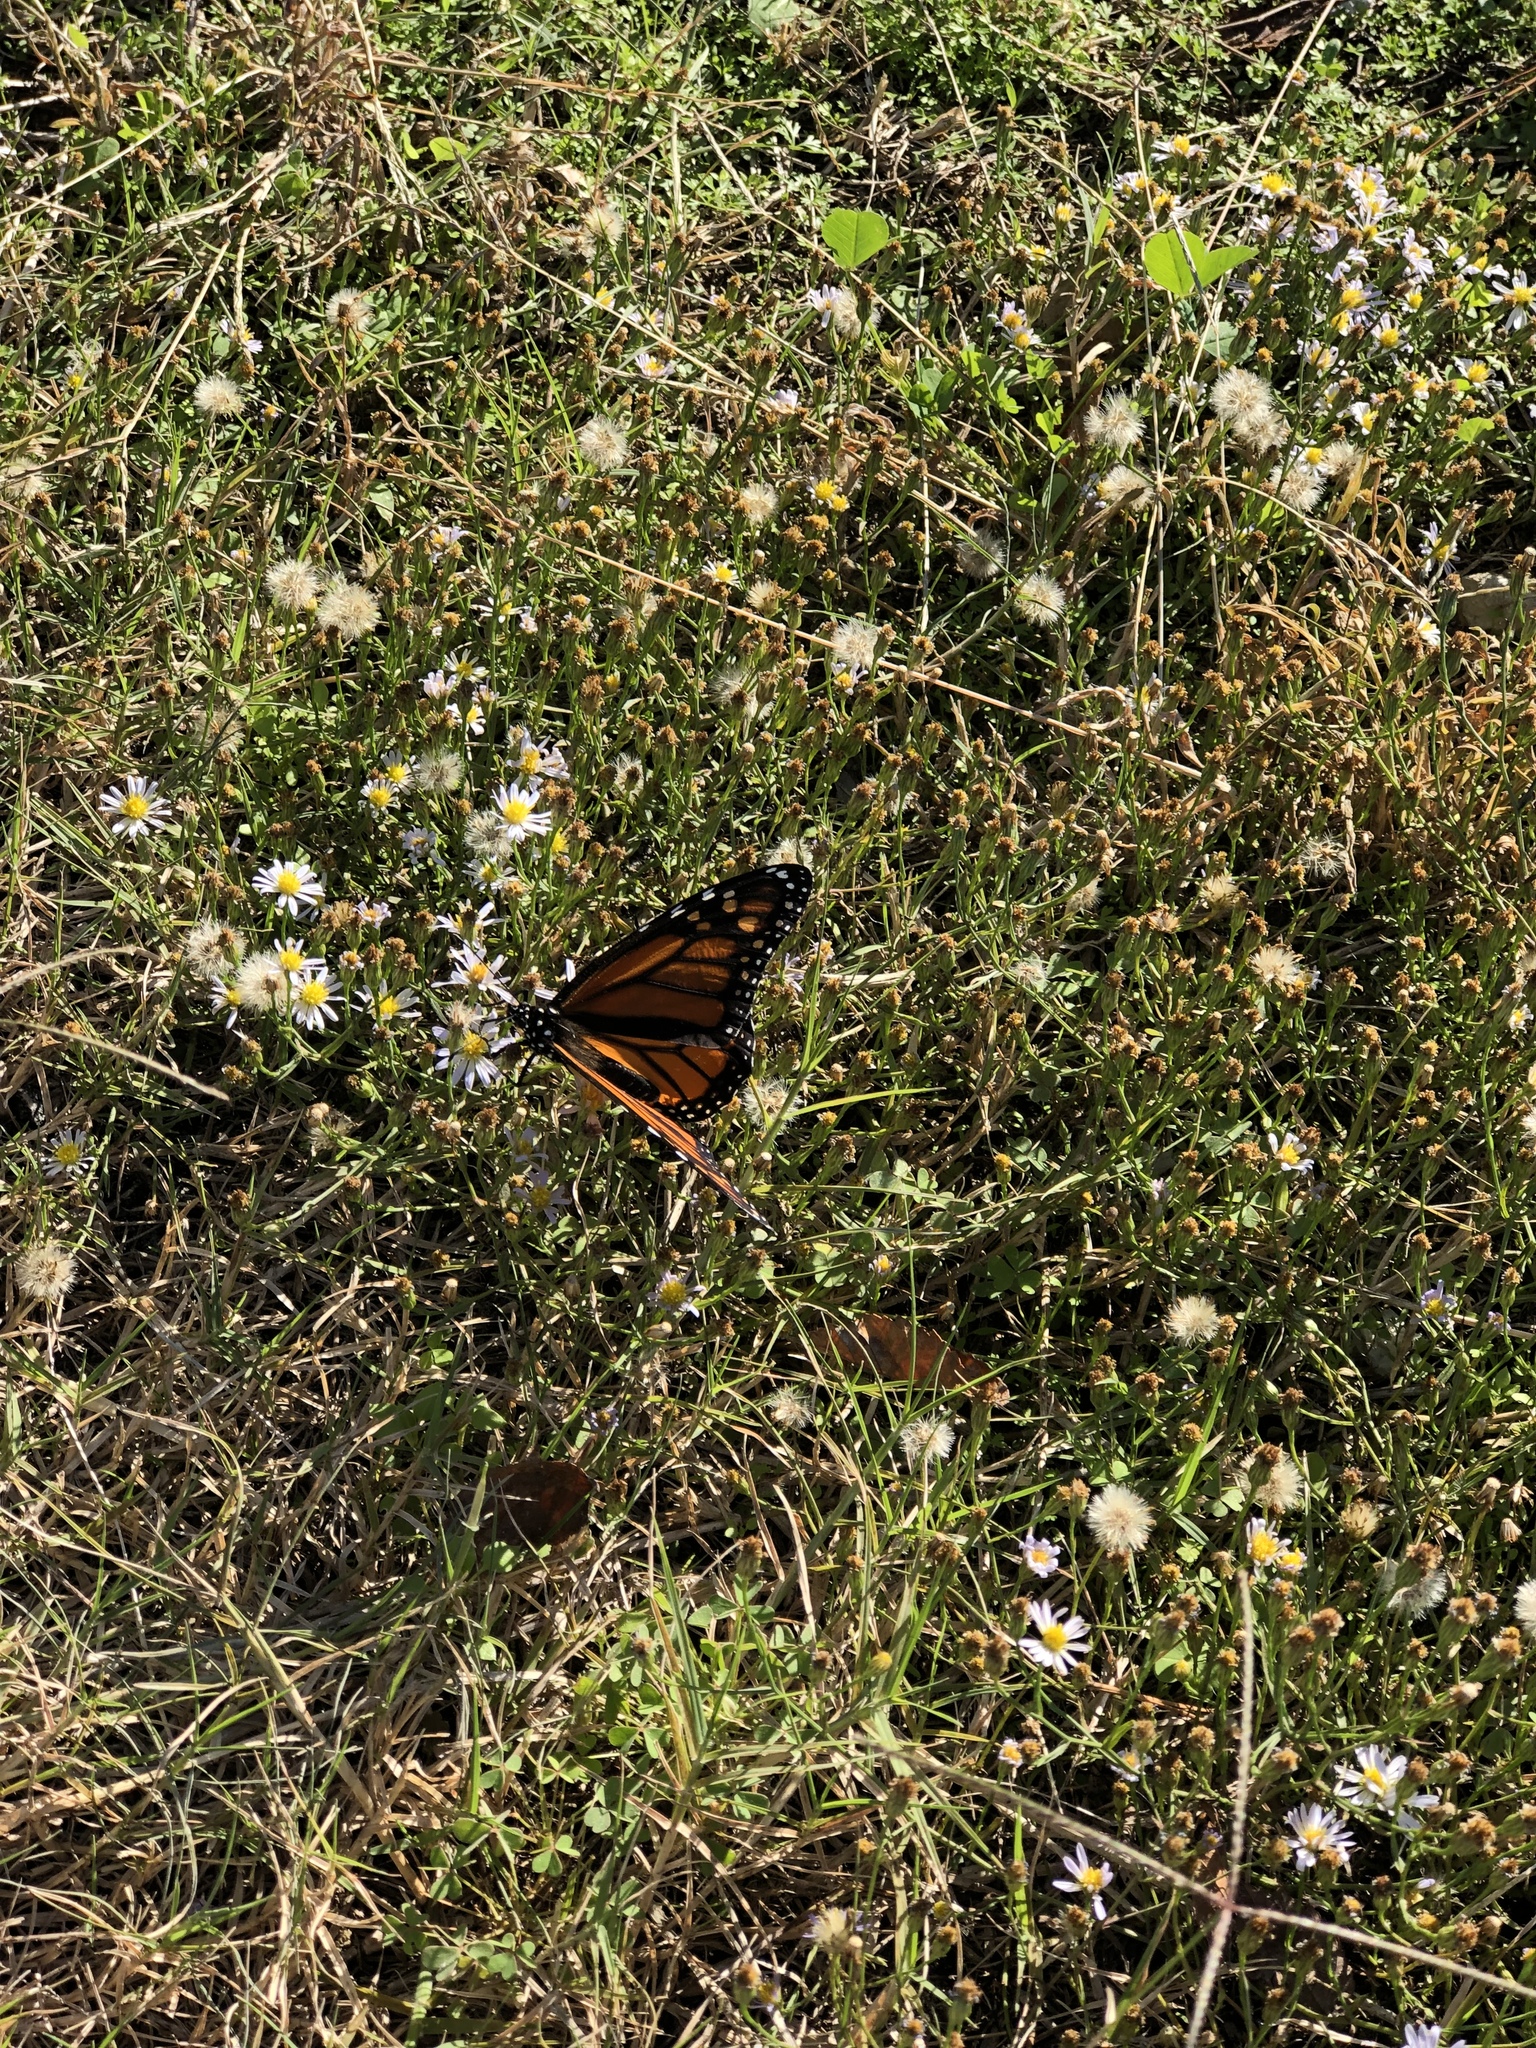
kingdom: Animalia
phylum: Arthropoda
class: Insecta
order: Lepidoptera
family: Nymphalidae
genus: Danaus
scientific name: Danaus plexippus
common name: Monarch
